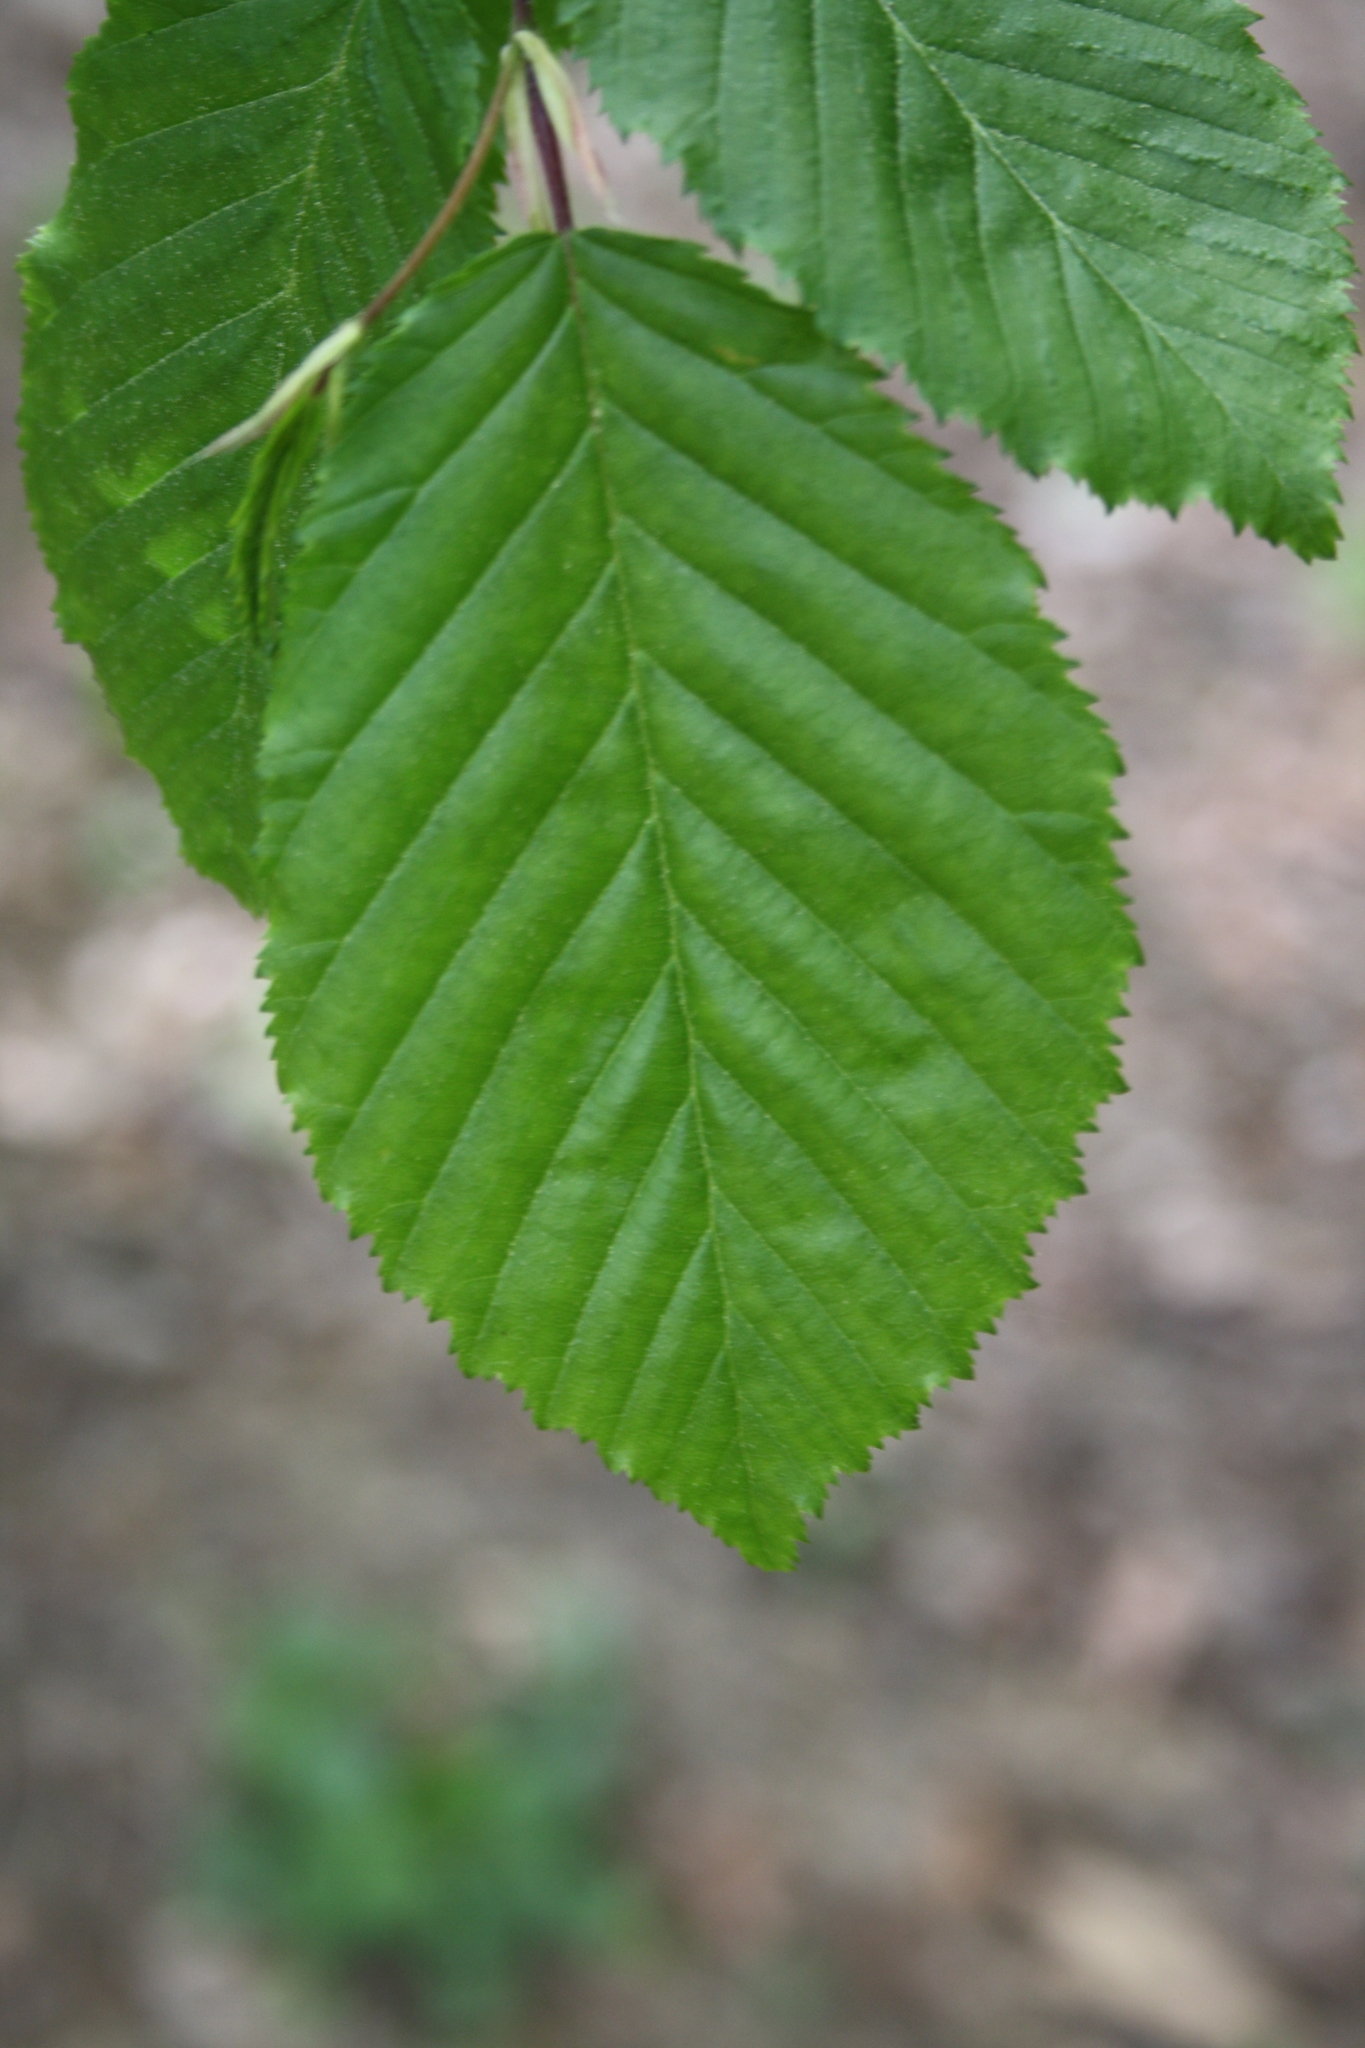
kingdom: Plantae
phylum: Tracheophyta
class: Magnoliopsida
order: Fagales
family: Betulaceae
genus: Carpinus
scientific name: Carpinus betulus
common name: Hornbeam
